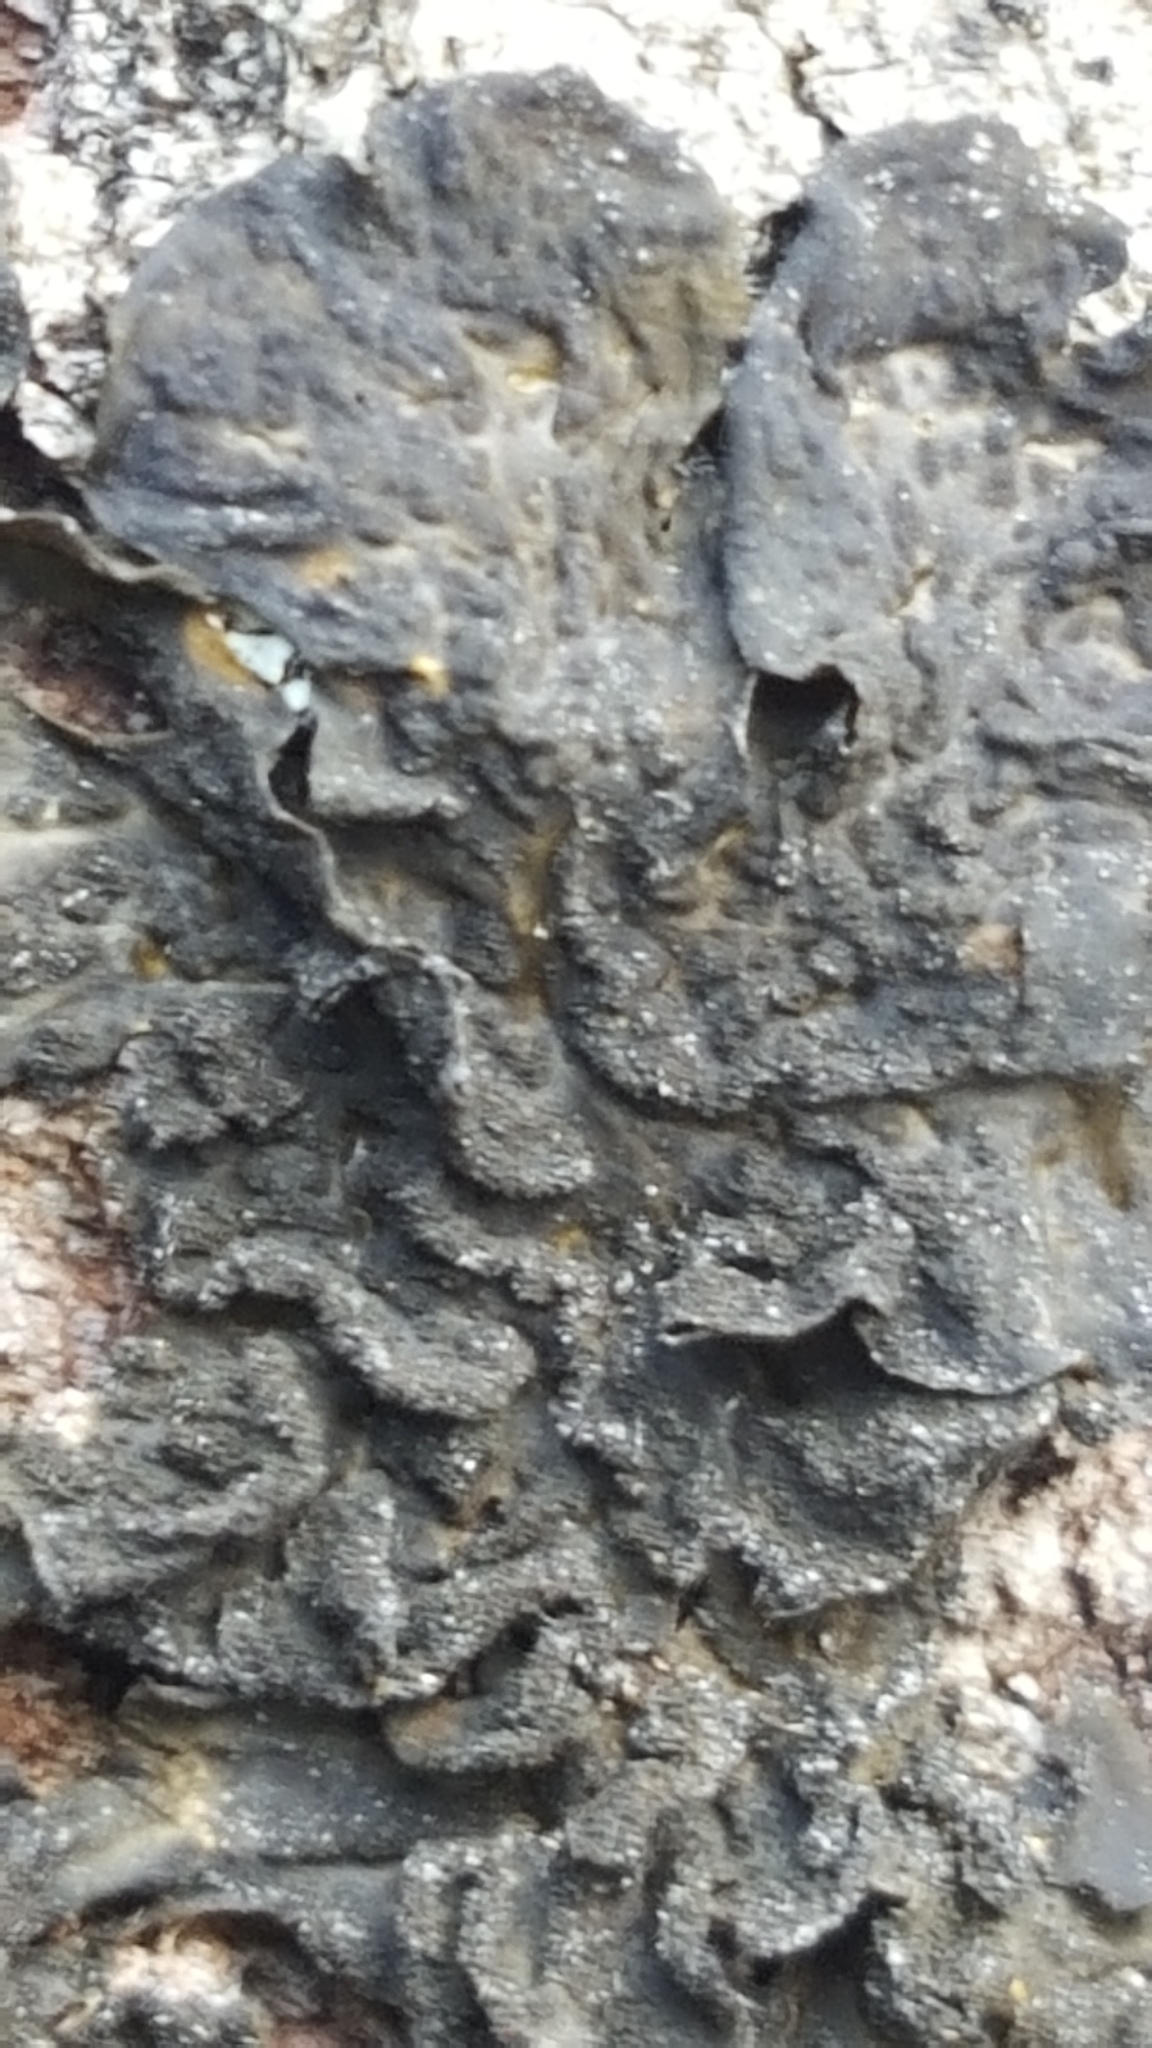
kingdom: Fungi
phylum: Ascomycota
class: Lecanoromycetes
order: Peltigerales
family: Collemataceae
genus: Collema
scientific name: Collema subflaccidum
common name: Tree jelly
